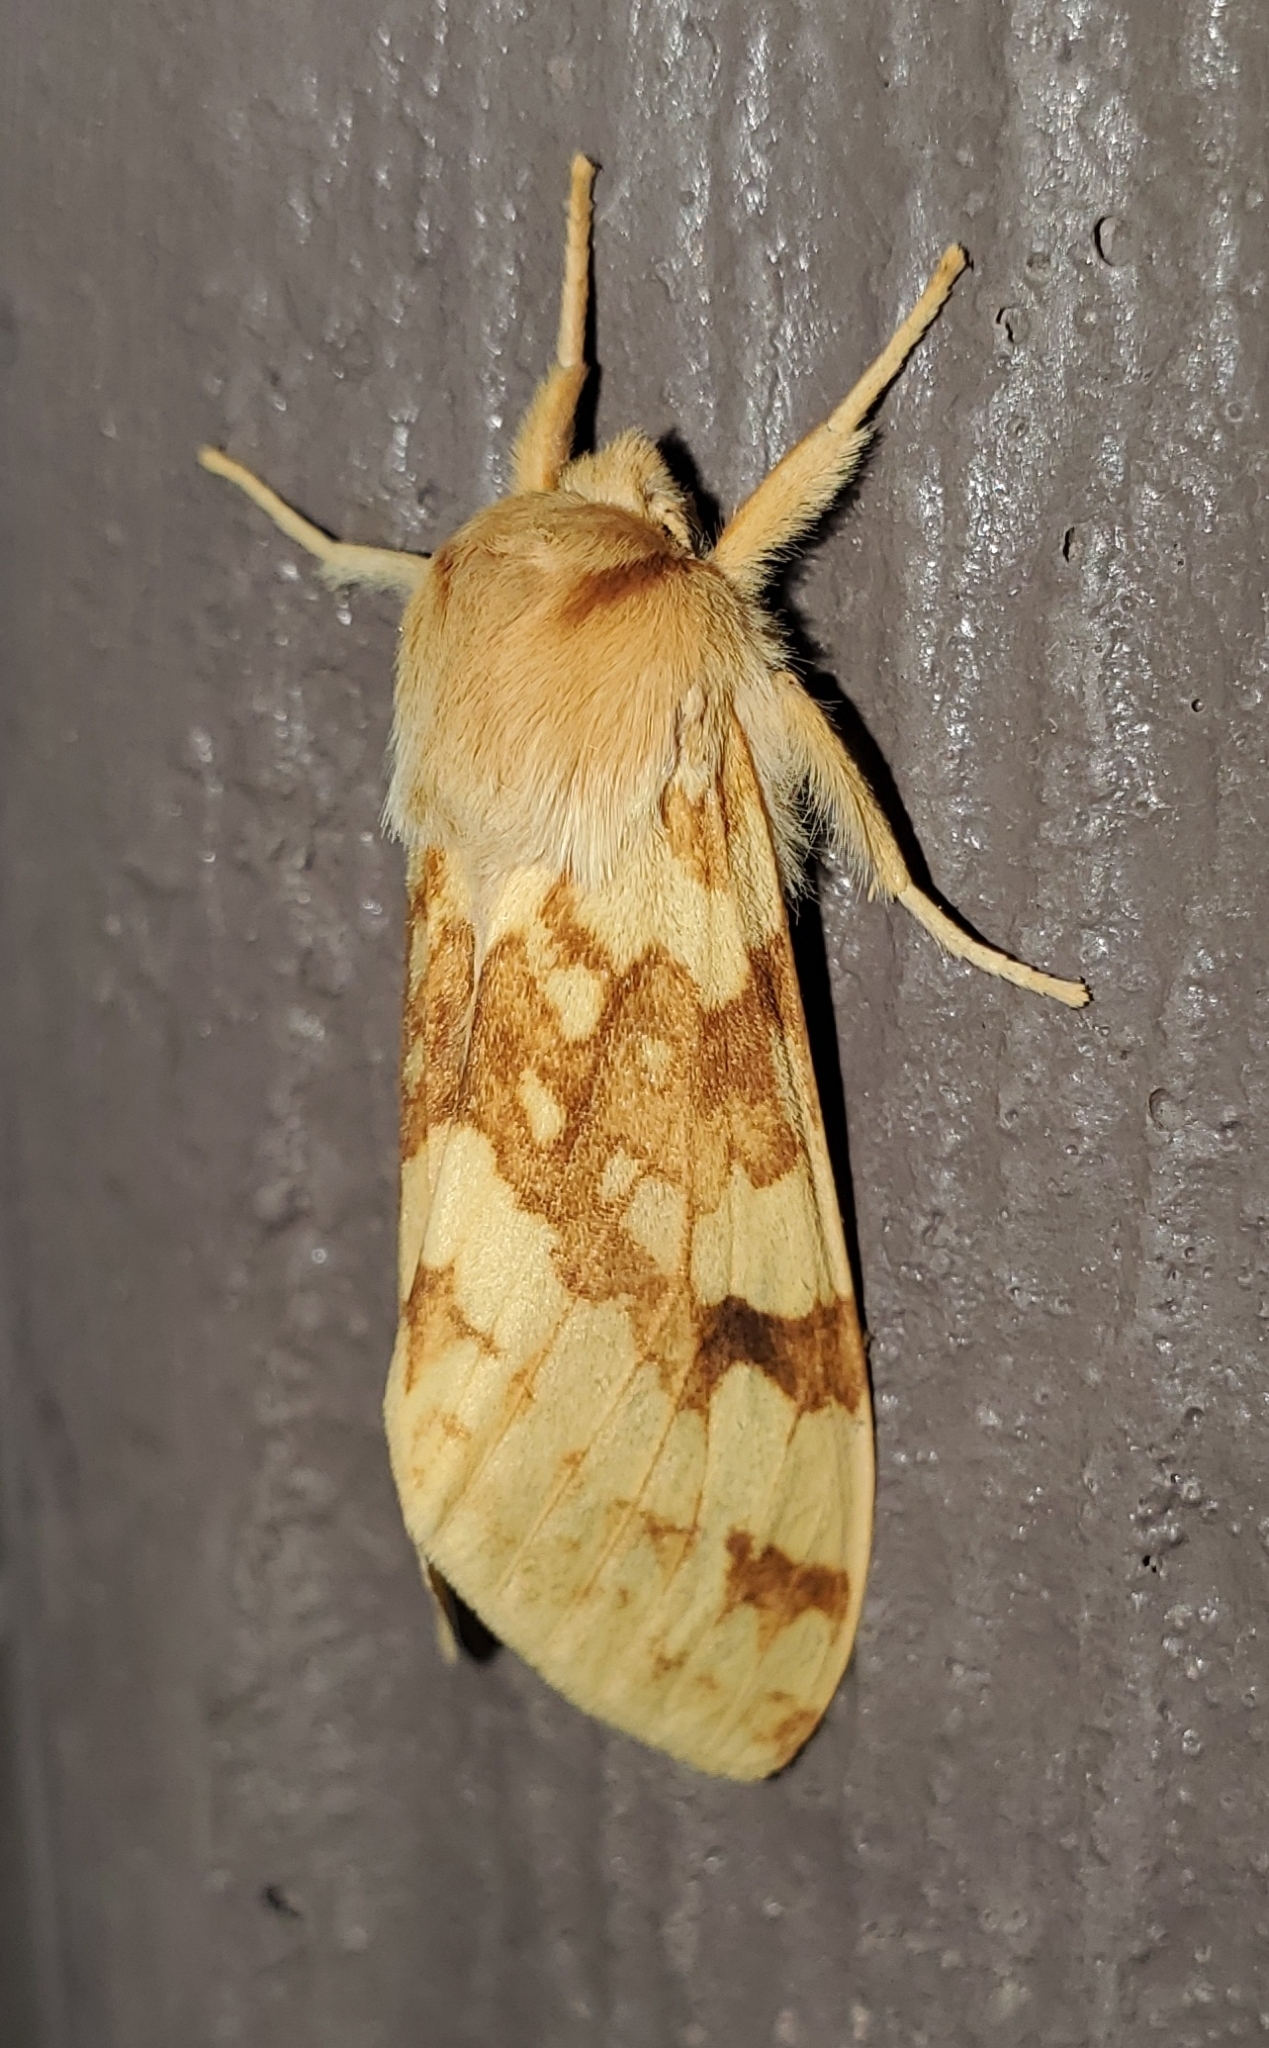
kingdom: Animalia
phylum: Arthropoda
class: Insecta
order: Lepidoptera
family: Erebidae
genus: Lophocampa
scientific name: Lophocampa maculata
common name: Spotted tussock moth
